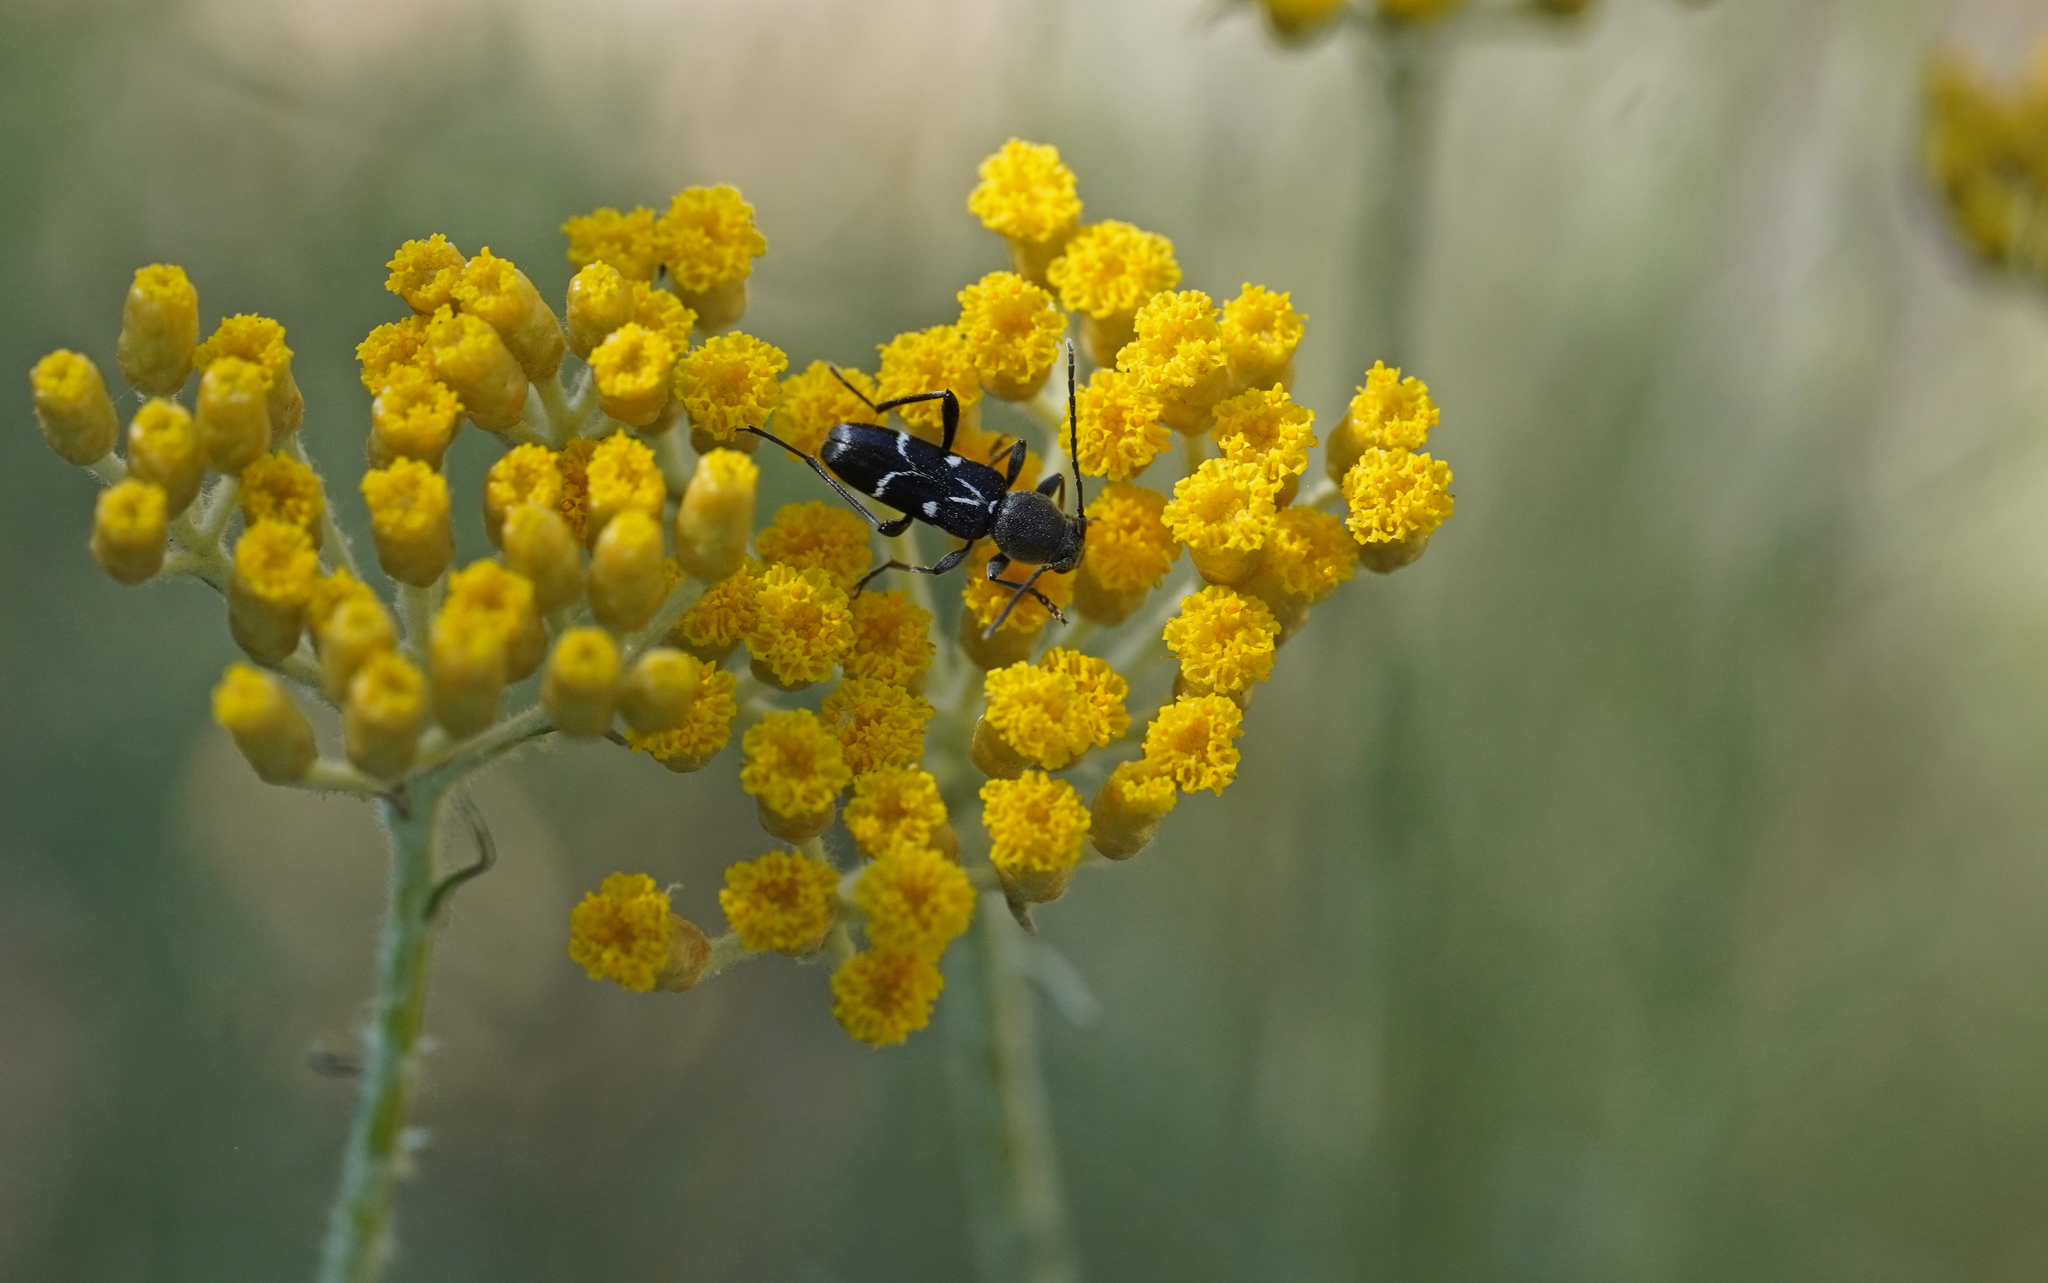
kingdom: Animalia
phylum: Arthropoda
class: Insecta
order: Coleoptera
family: Cerambycidae
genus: Chlorophorus
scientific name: Chlorophorus sartor
